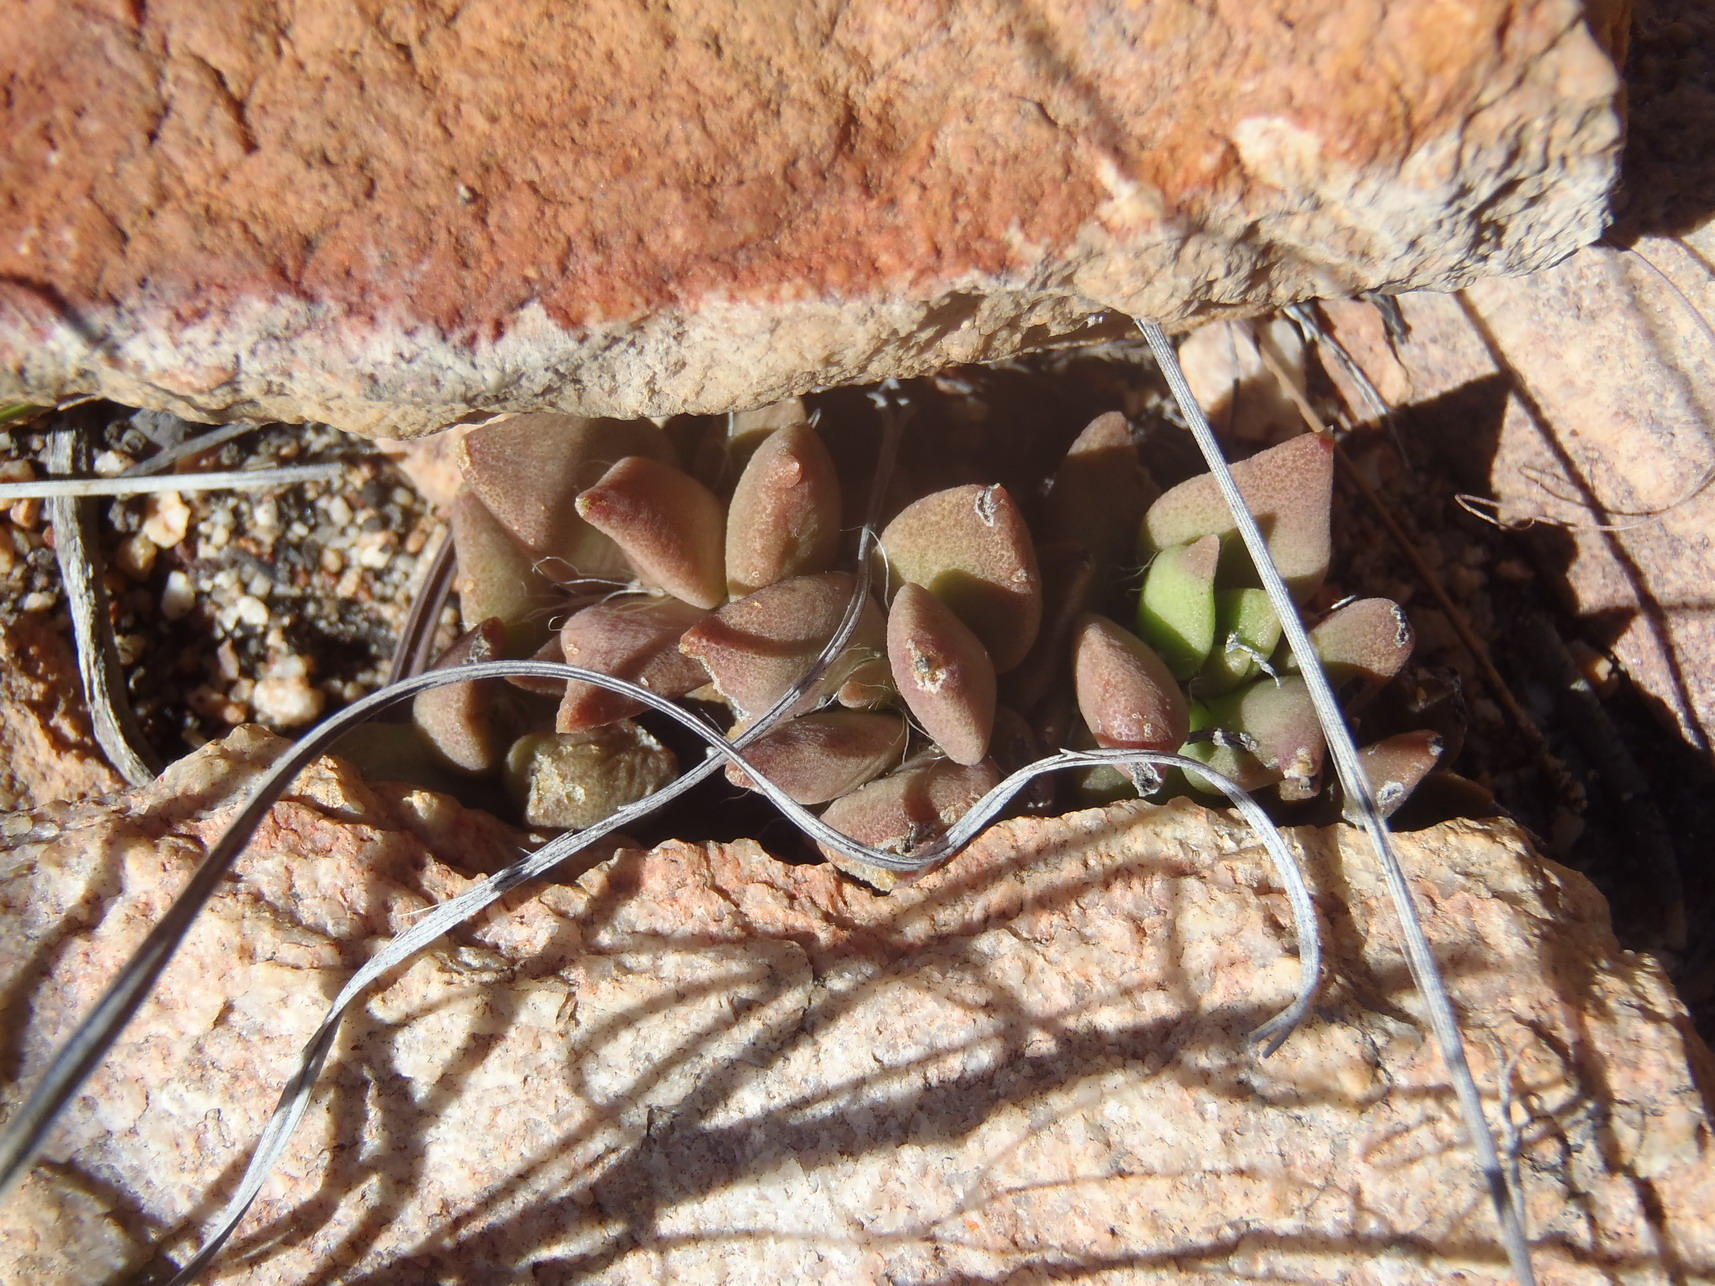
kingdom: Plantae
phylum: Tracheophyta
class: Magnoliopsida
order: Caryophyllales
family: Anacampserotaceae
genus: Anacampseros
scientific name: Anacampseros telephiastrum
